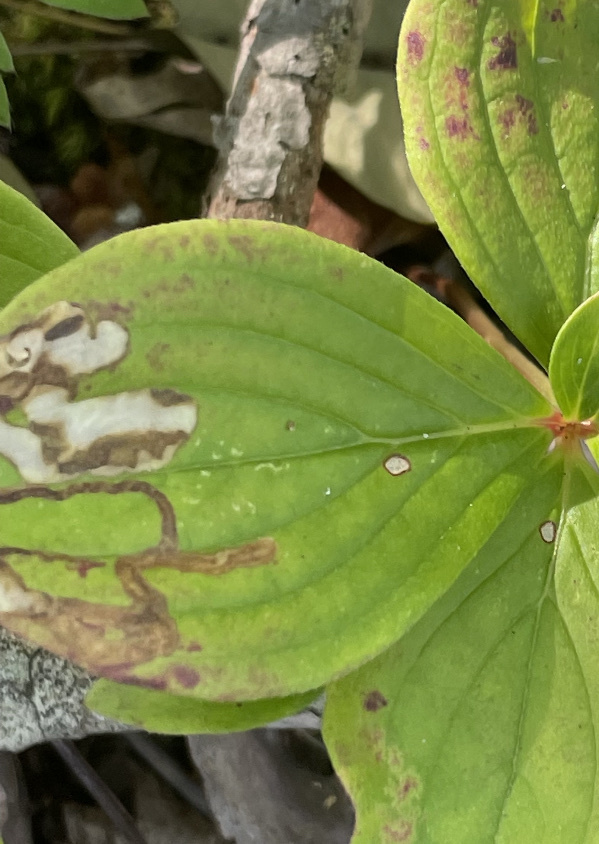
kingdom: Animalia
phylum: Arthropoda
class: Insecta
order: Diptera
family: Agromyzidae
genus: Phytomyza
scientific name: Phytomyza agromyzina
